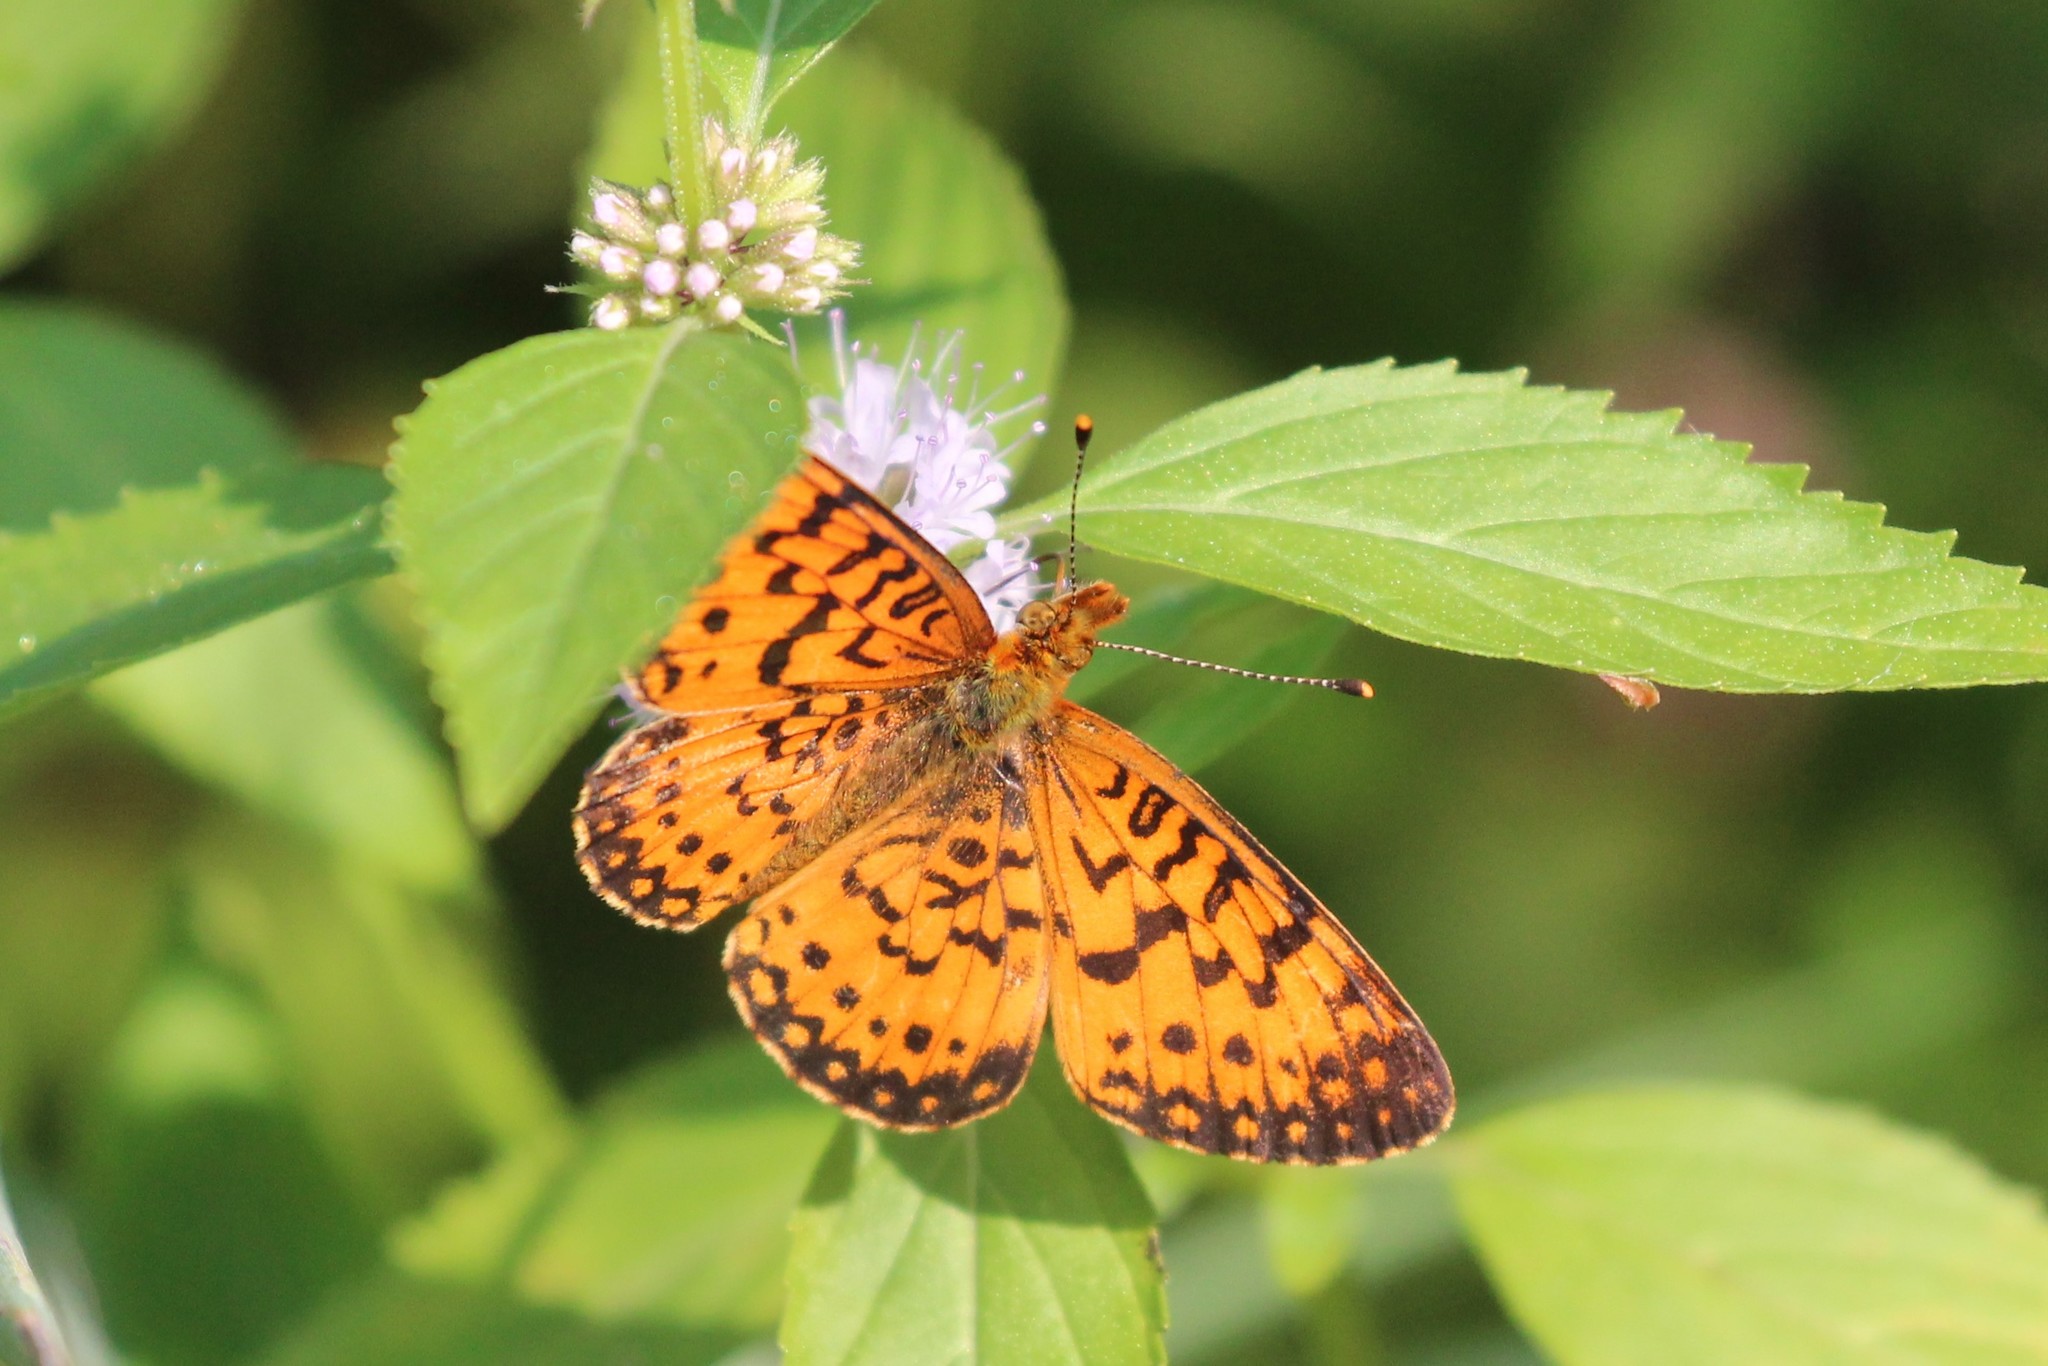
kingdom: Animalia
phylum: Arthropoda
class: Insecta
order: Lepidoptera
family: Nymphalidae
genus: Boloria
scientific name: Boloria
